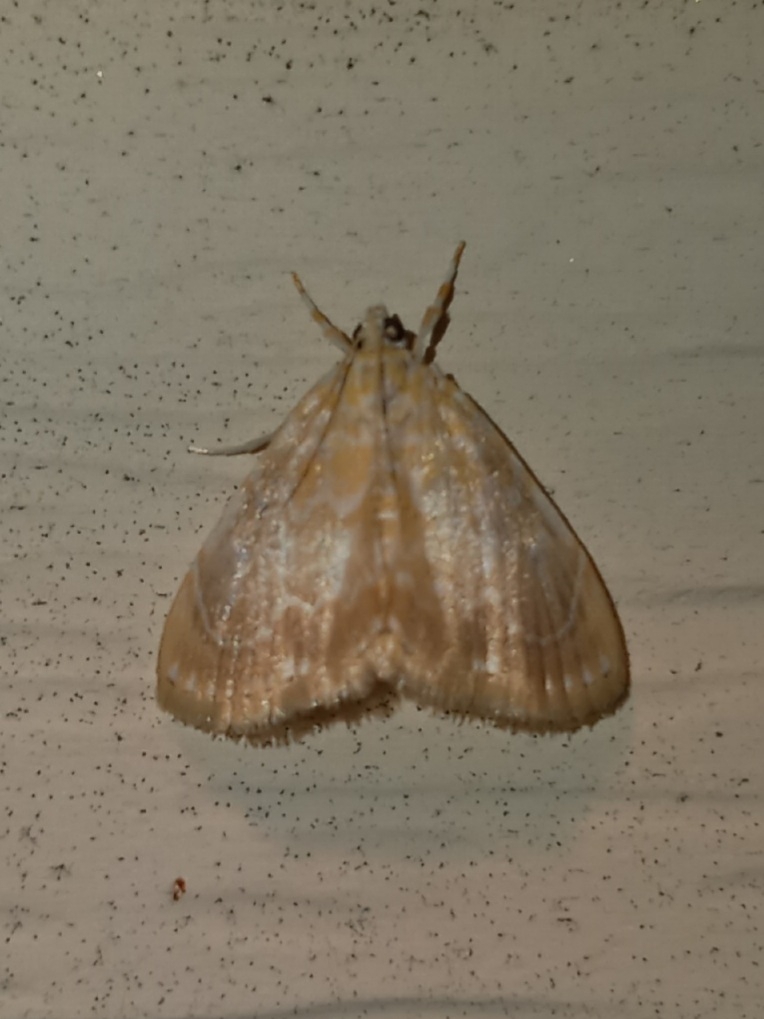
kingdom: Animalia
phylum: Arthropoda
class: Insecta
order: Lepidoptera
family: Crambidae
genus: Glaphyria
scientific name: Glaphyria glaphyralis
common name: Common glaphyria moth
